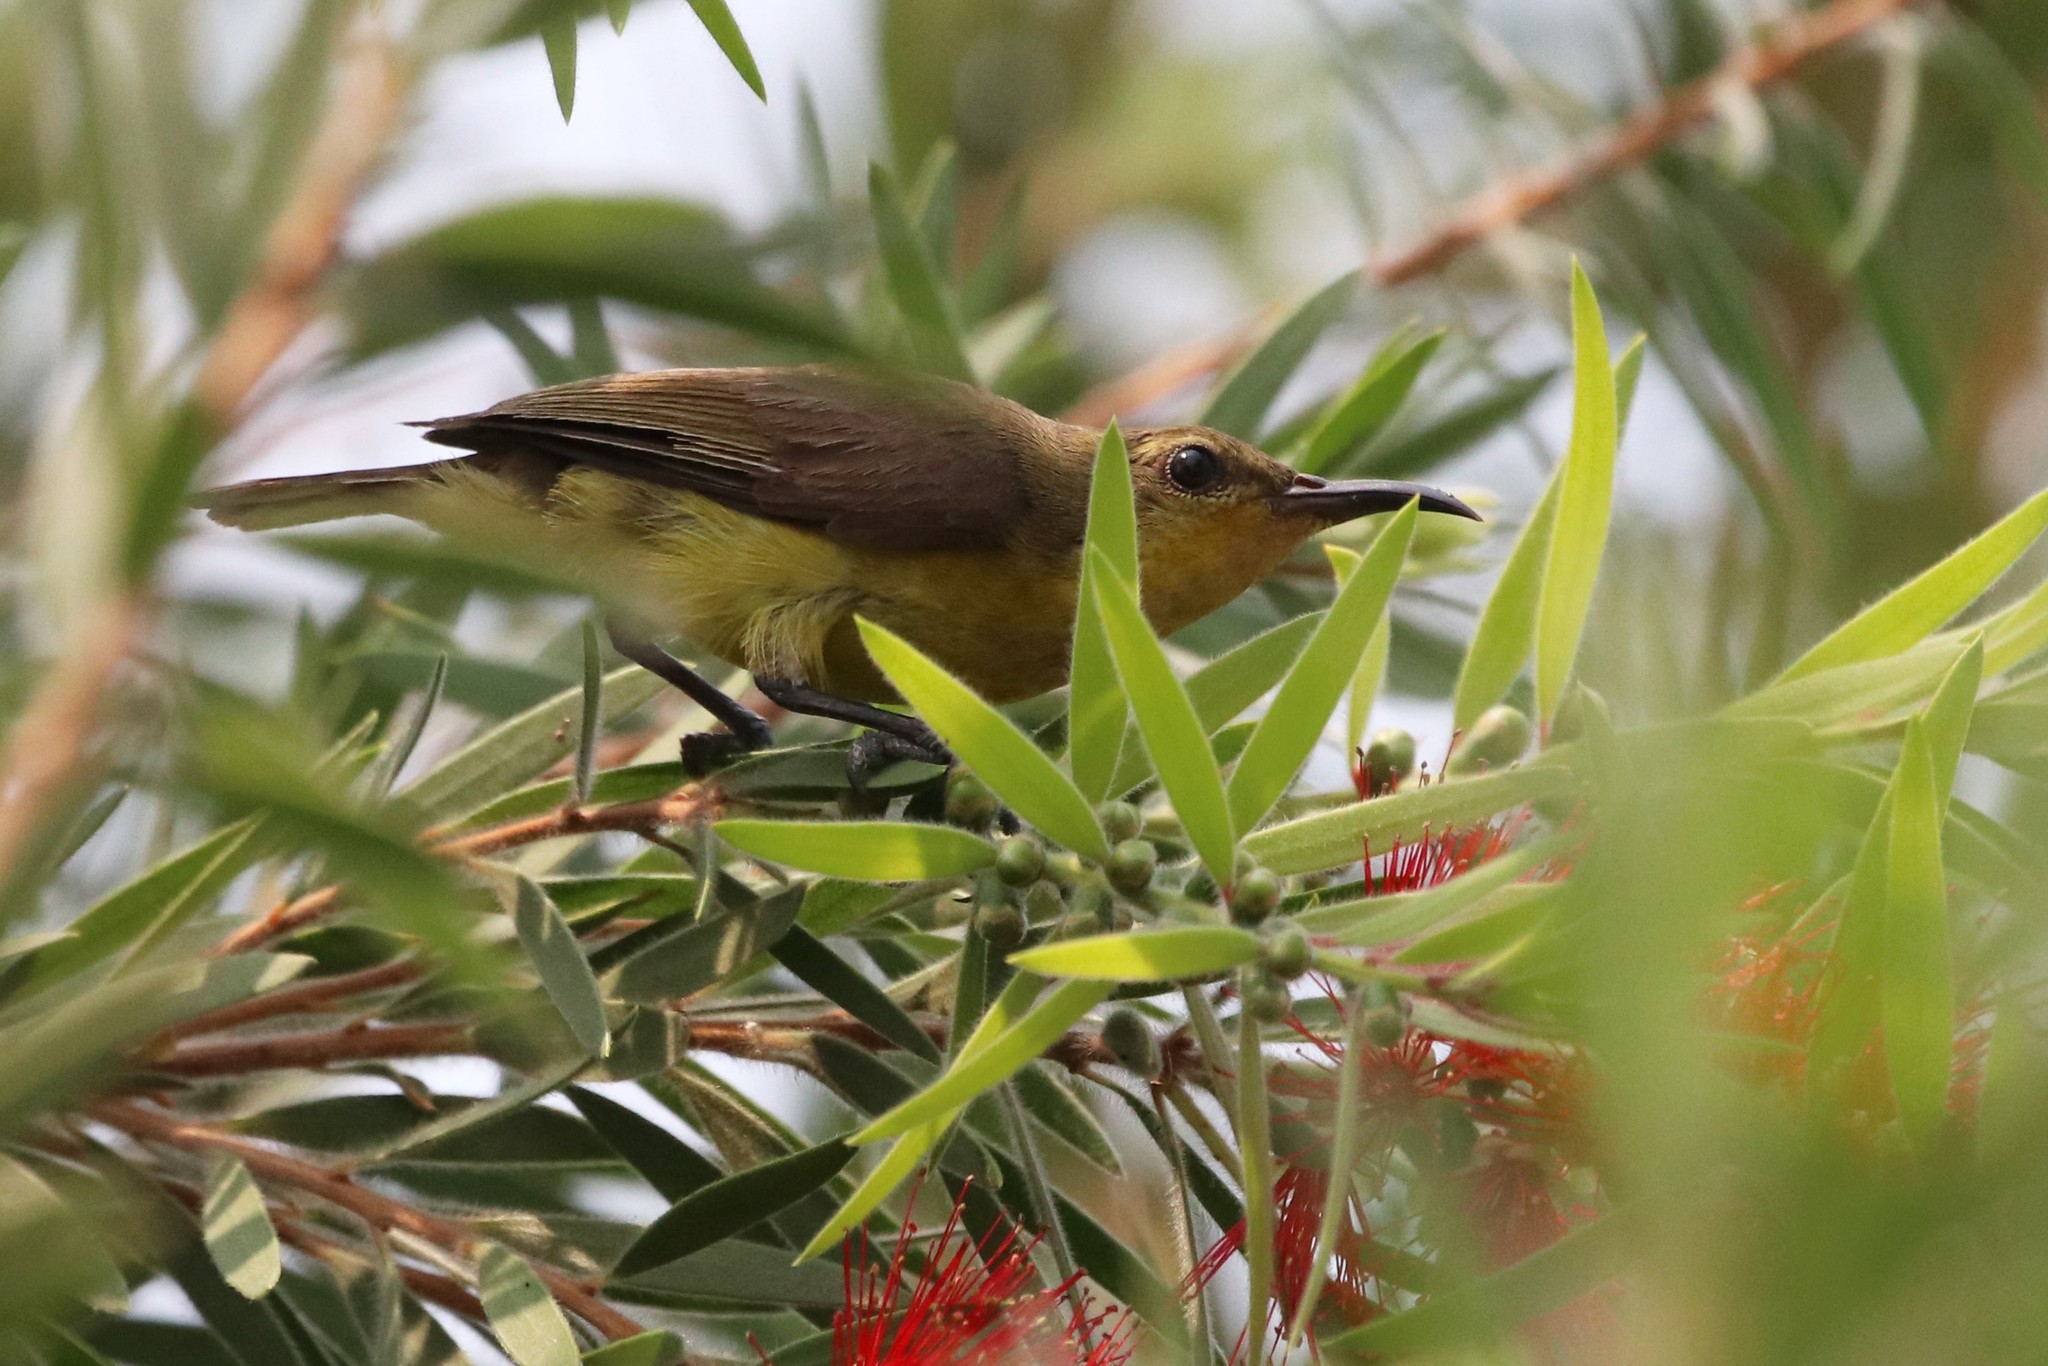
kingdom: Animalia
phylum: Chordata
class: Aves
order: Passeriformes
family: Nectariniidae
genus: Cinnyris
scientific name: Cinnyris
